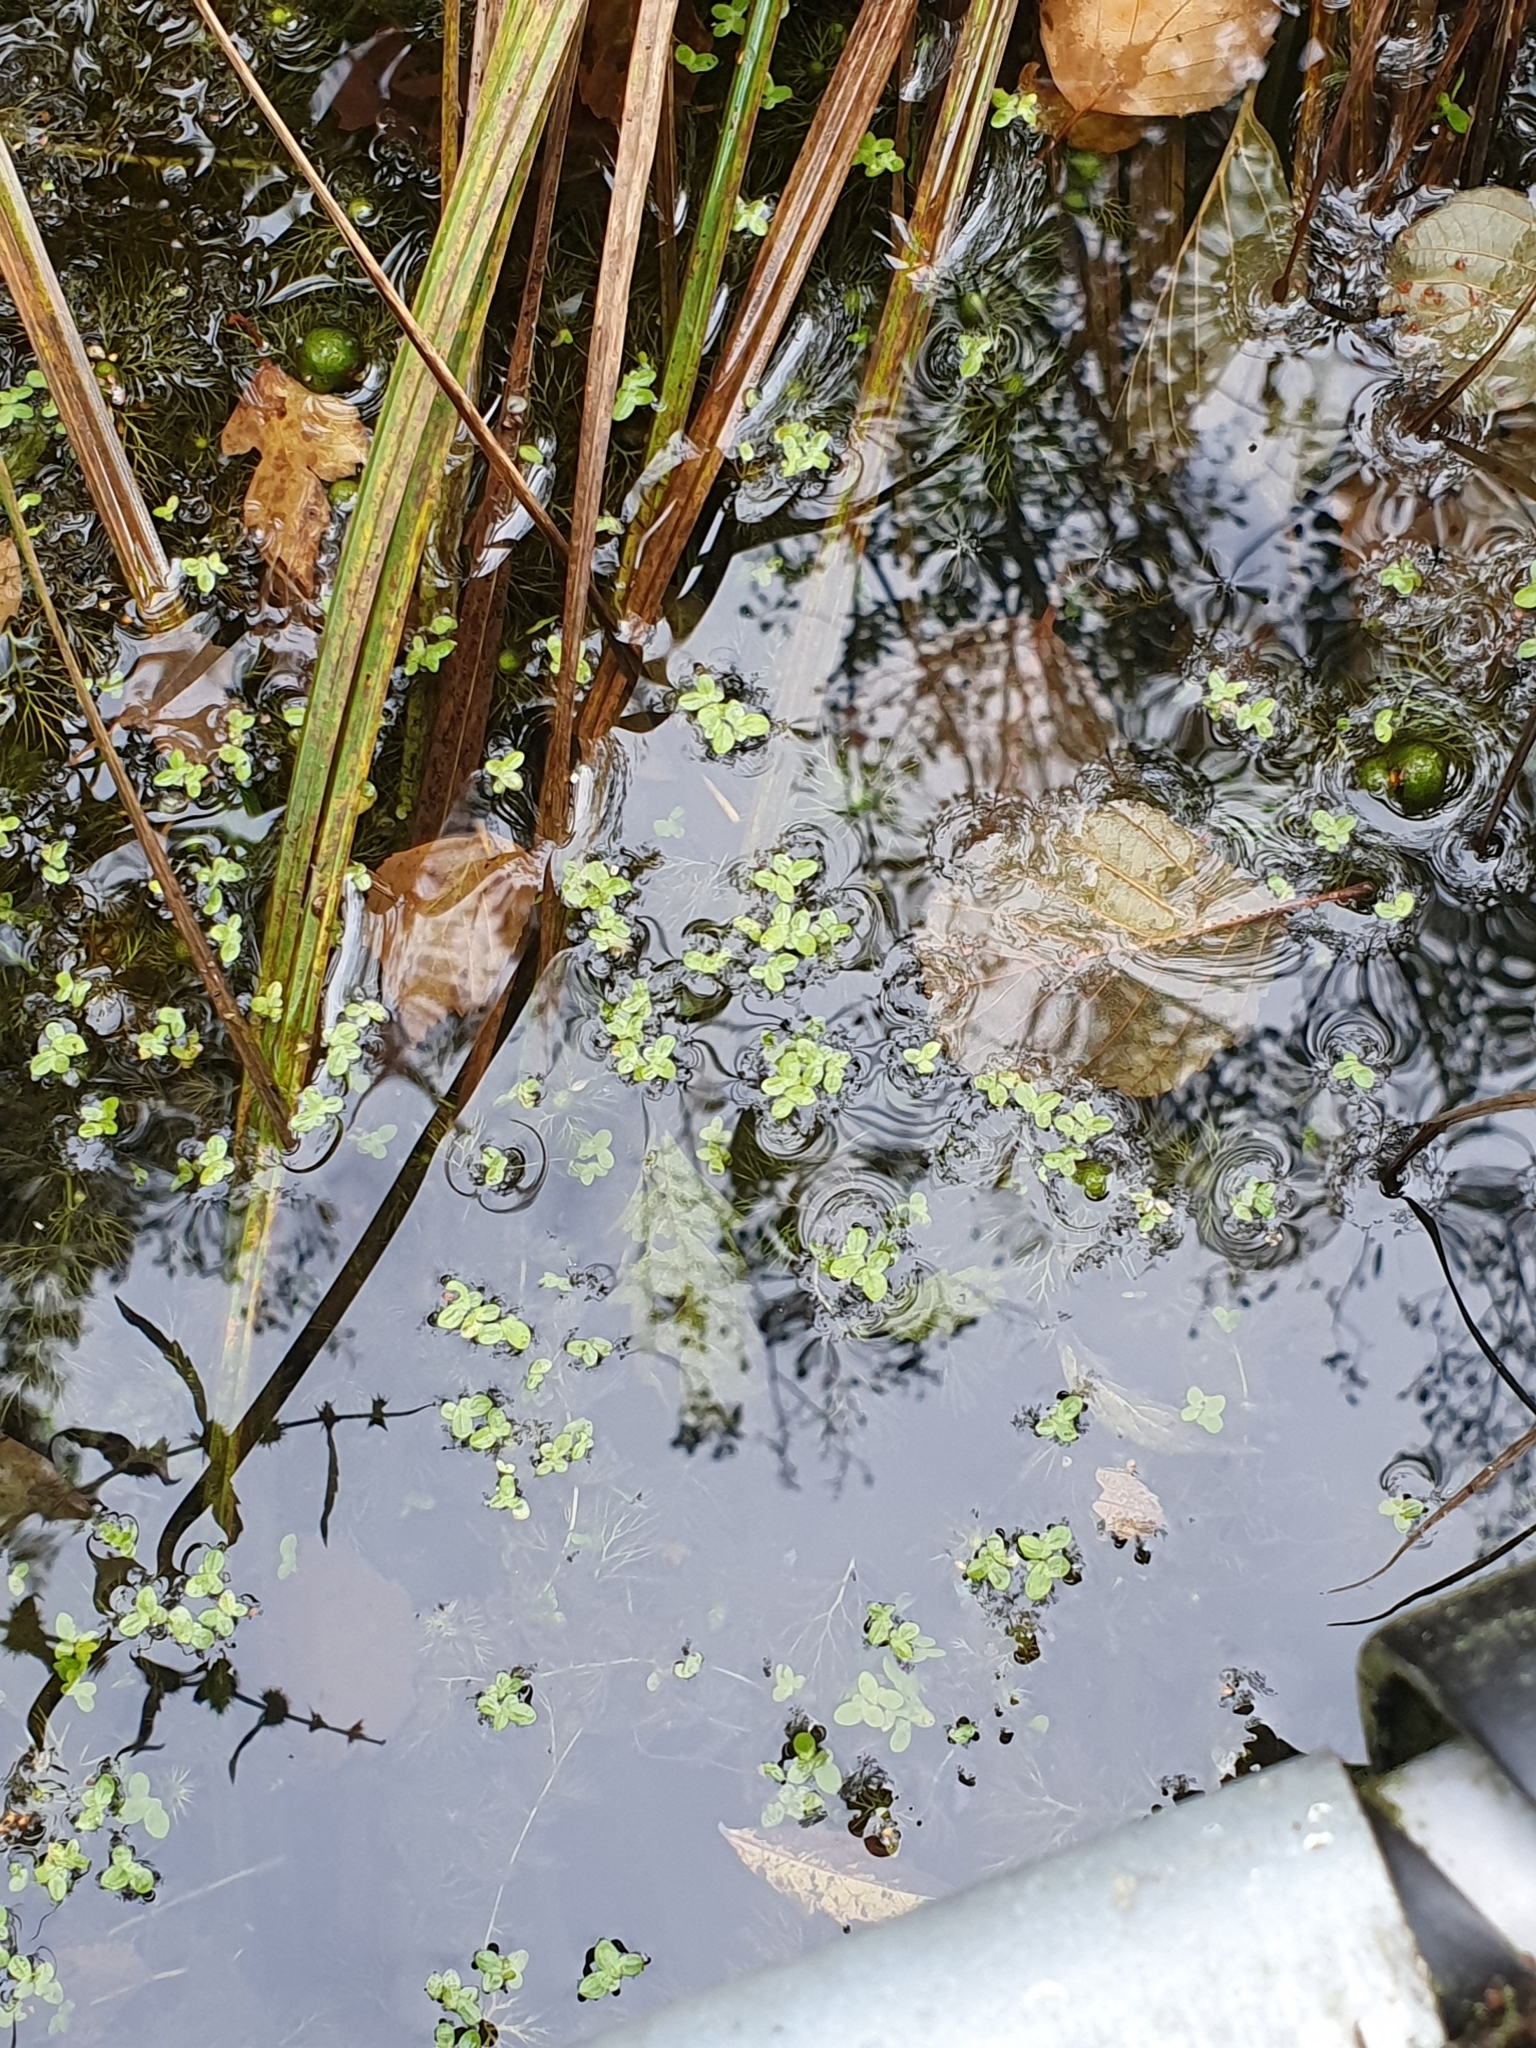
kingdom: Plantae
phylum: Tracheophyta
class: Liliopsida
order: Alismatales
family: Araceae
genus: Lemna
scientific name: Lemna minor
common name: Common duckweed
